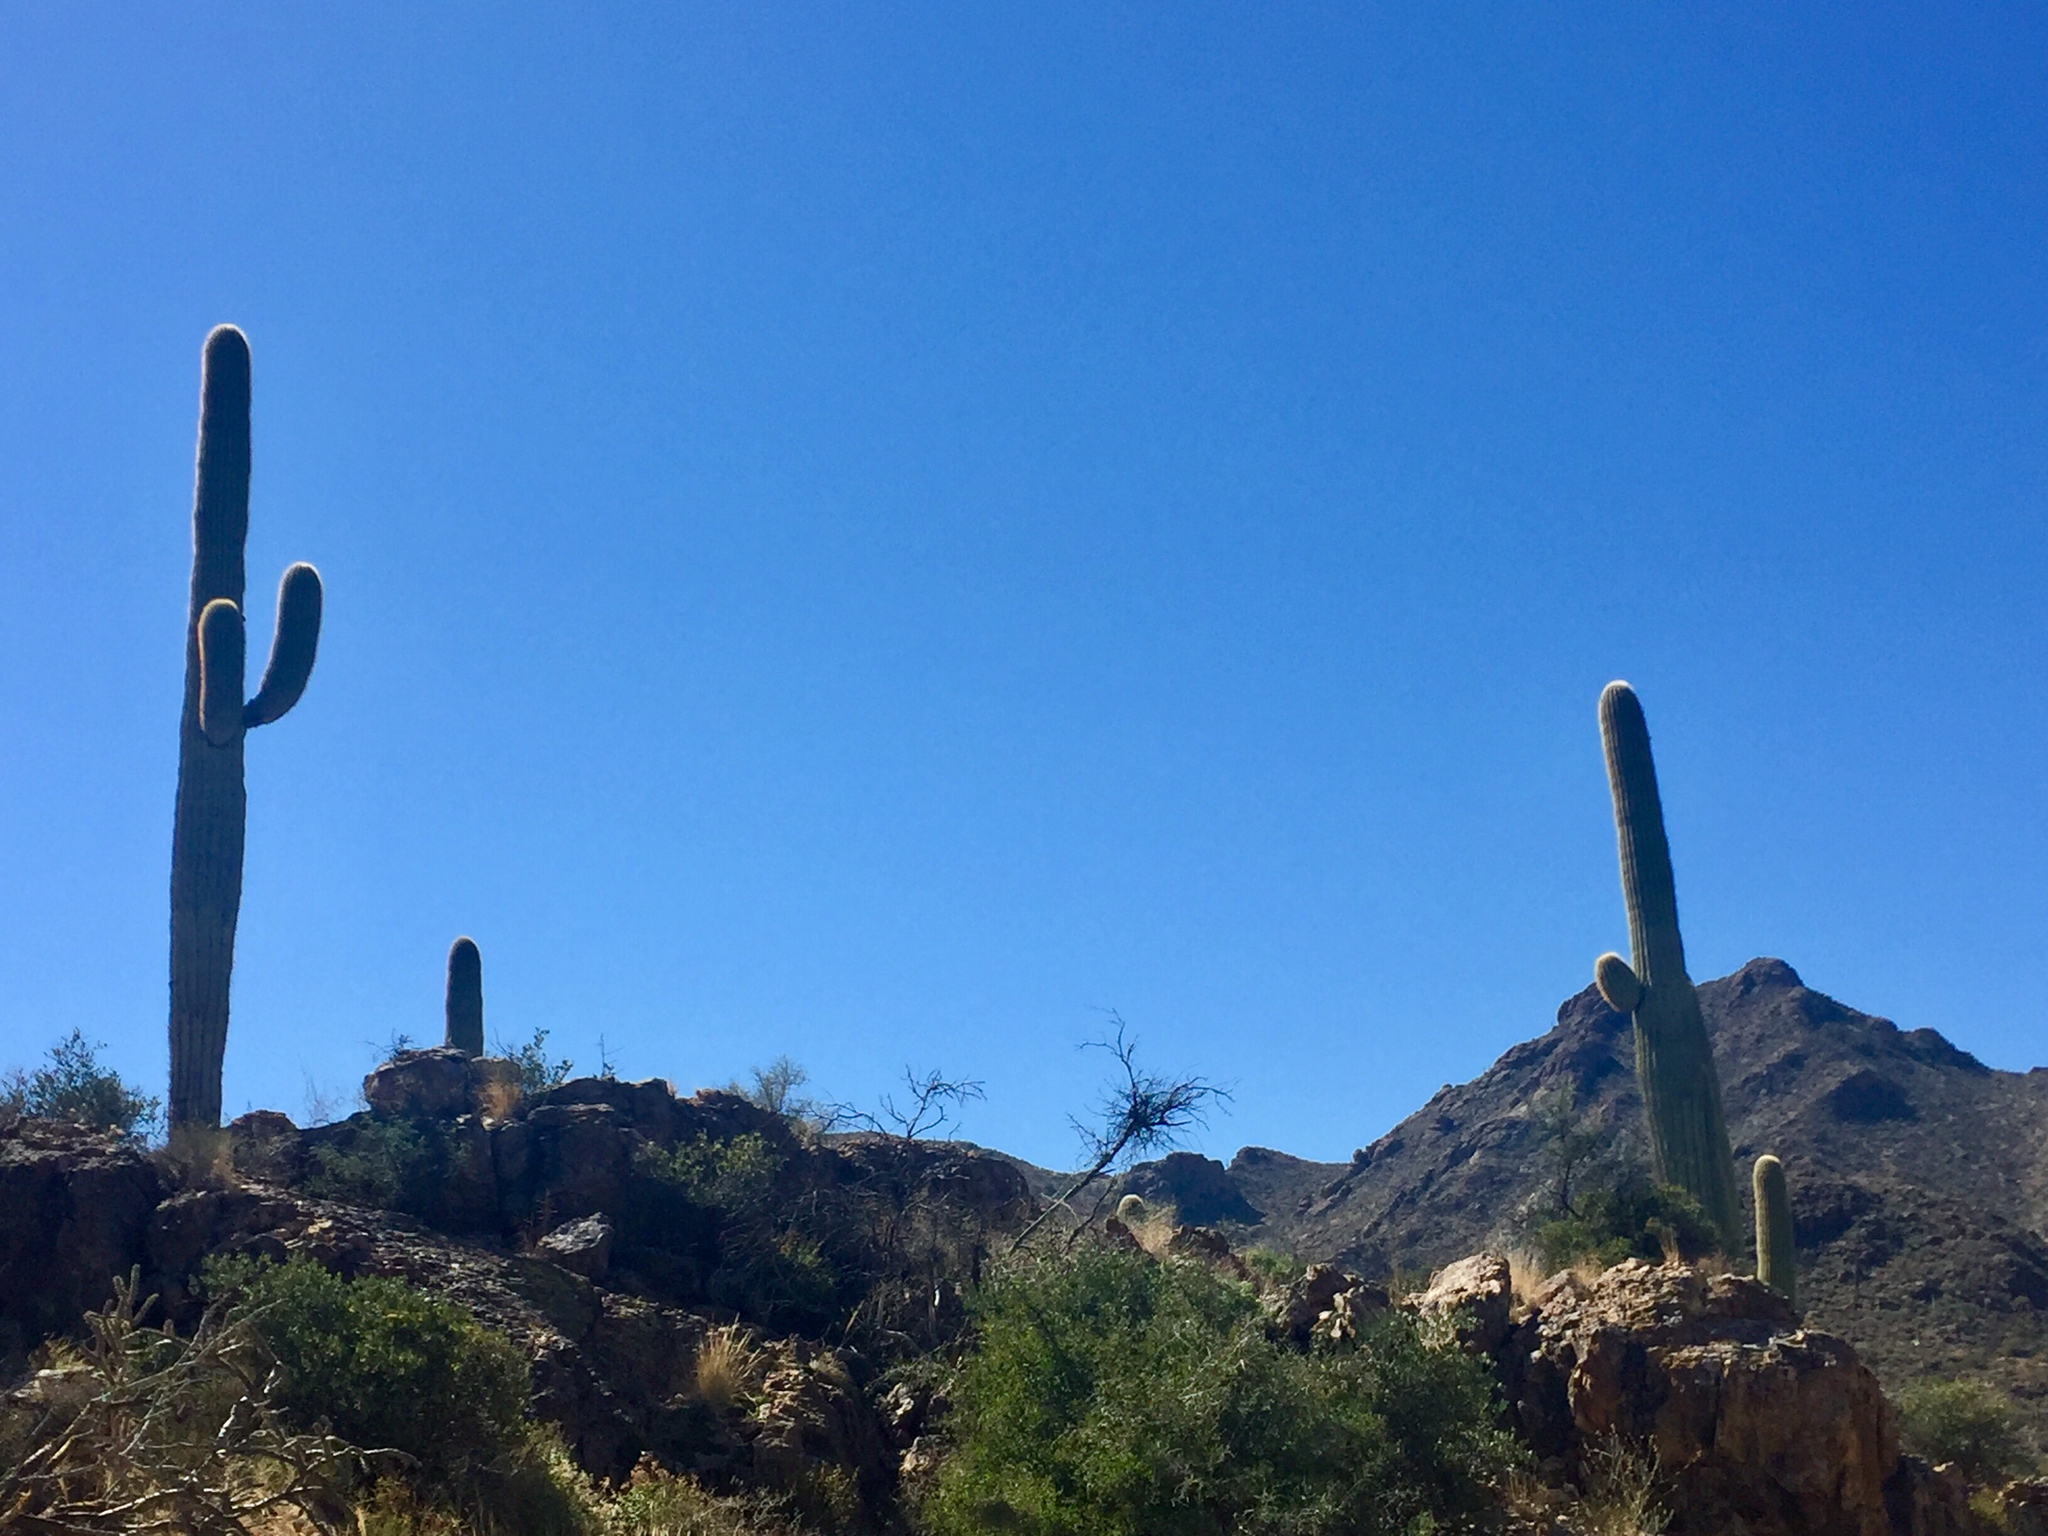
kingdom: Plantae
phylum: Tracheophyta
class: Magnoliopsida
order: Caryophyllales
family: Cactaceae
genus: Carnegiea
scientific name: Carnegiea gigantea
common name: Saguaro
